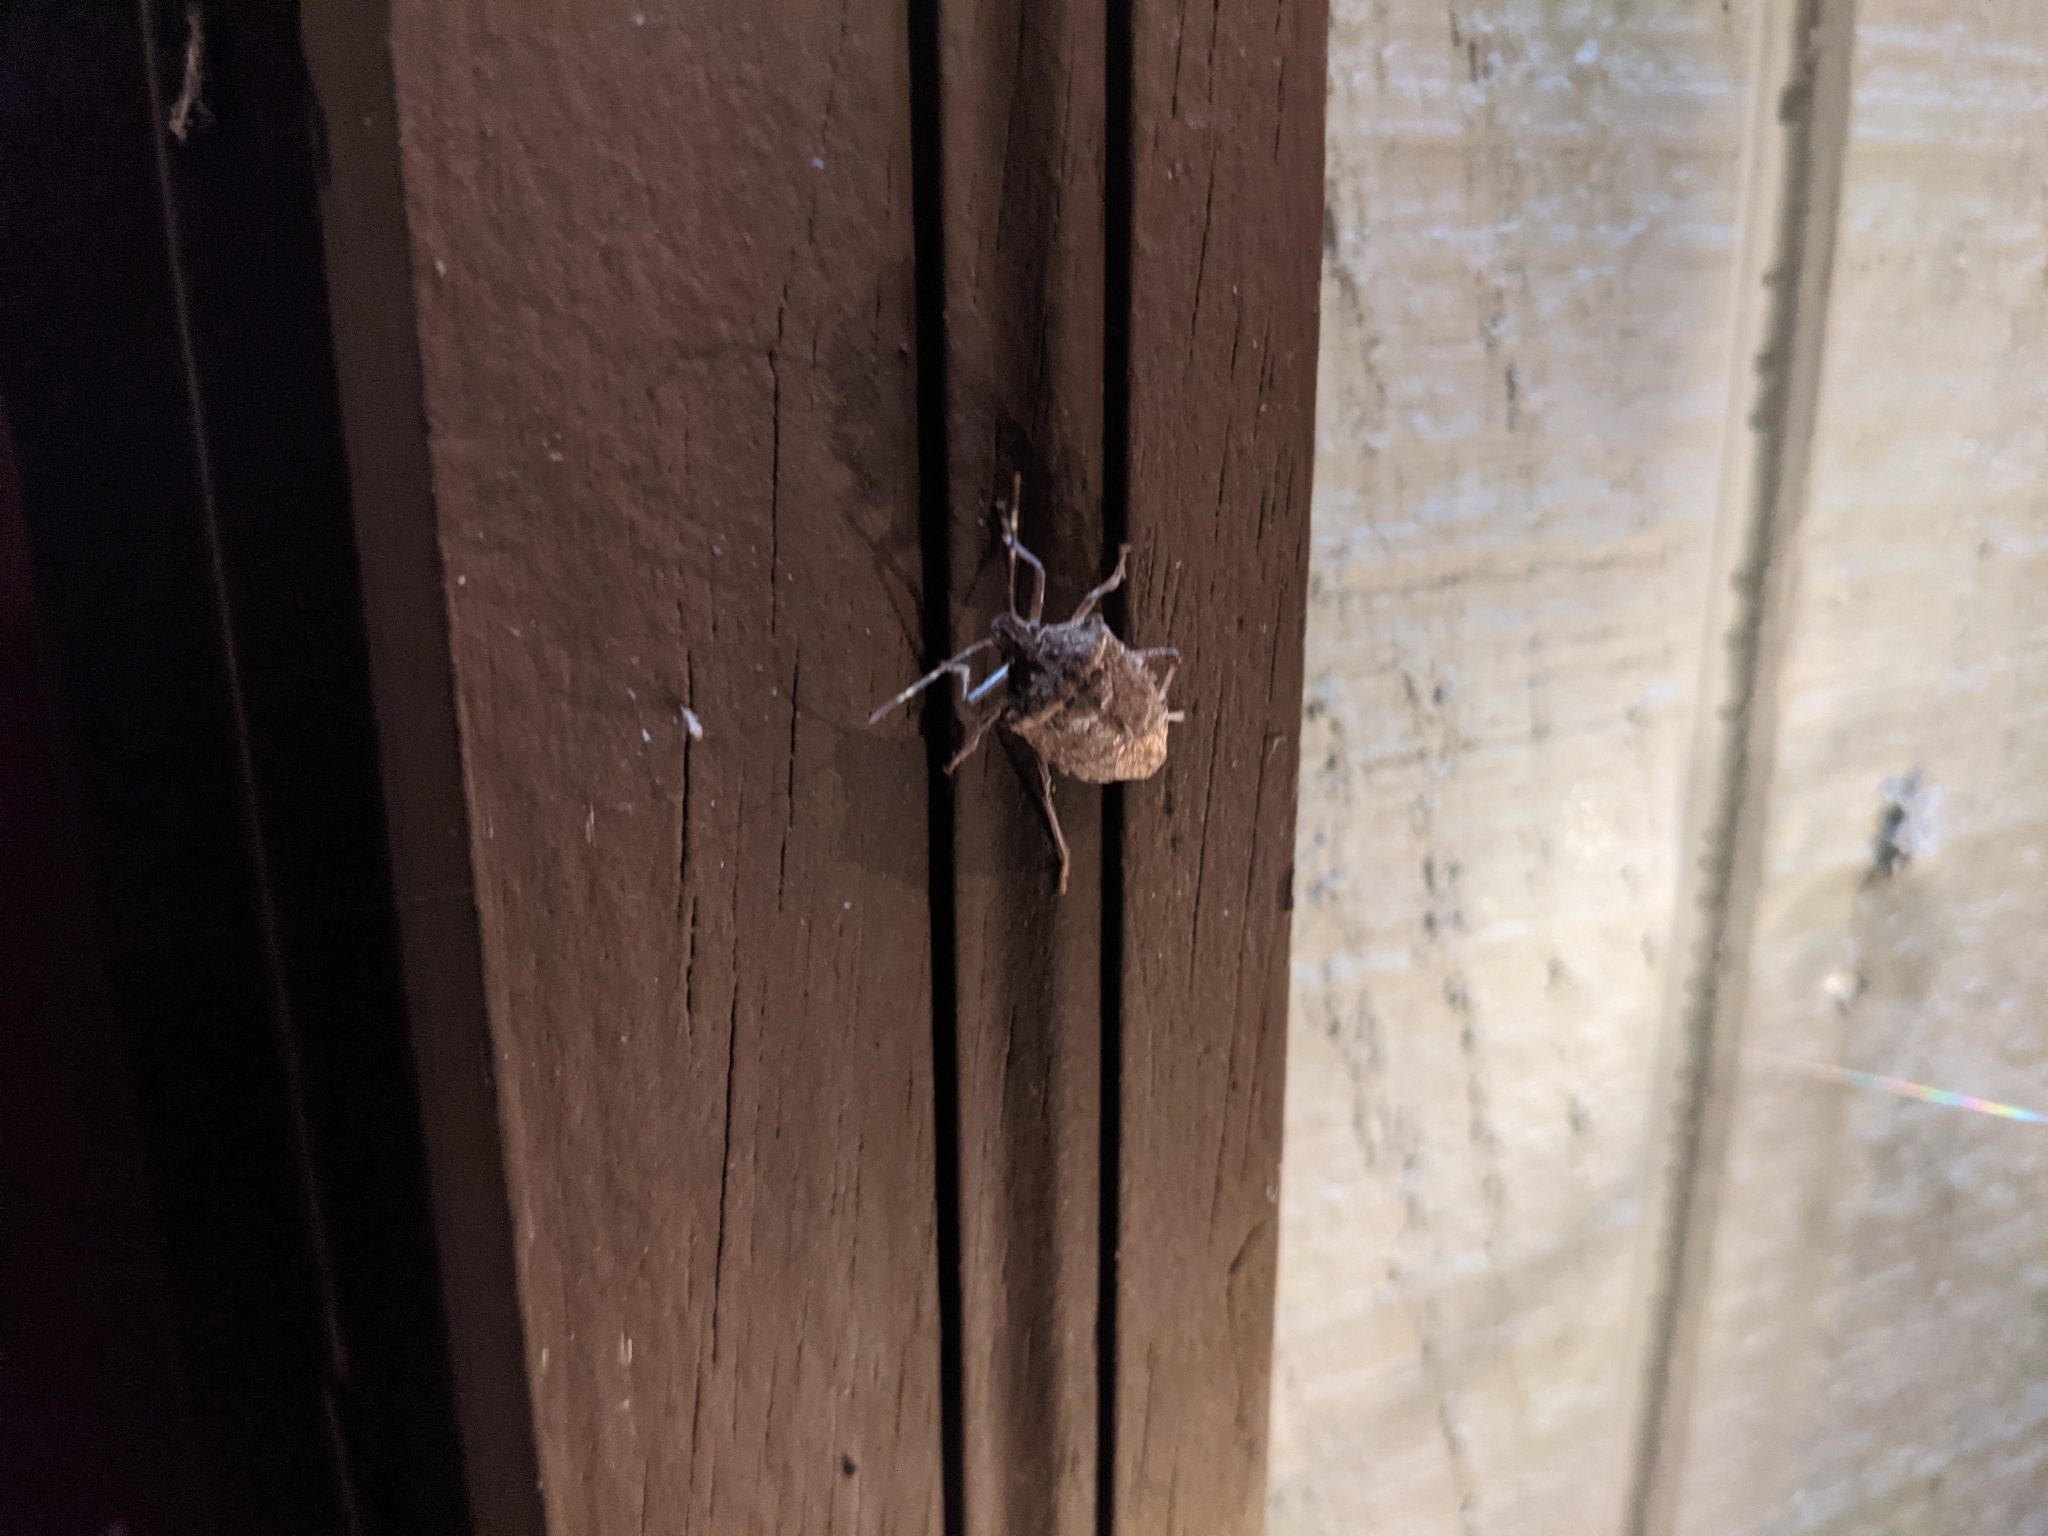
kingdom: Animalia
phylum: Arthropoda
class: Insecta
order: Hemiptera
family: Pentatomidae
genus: Halyomorpha
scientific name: Halyomorpha halys
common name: Brown marmorated stink bug
